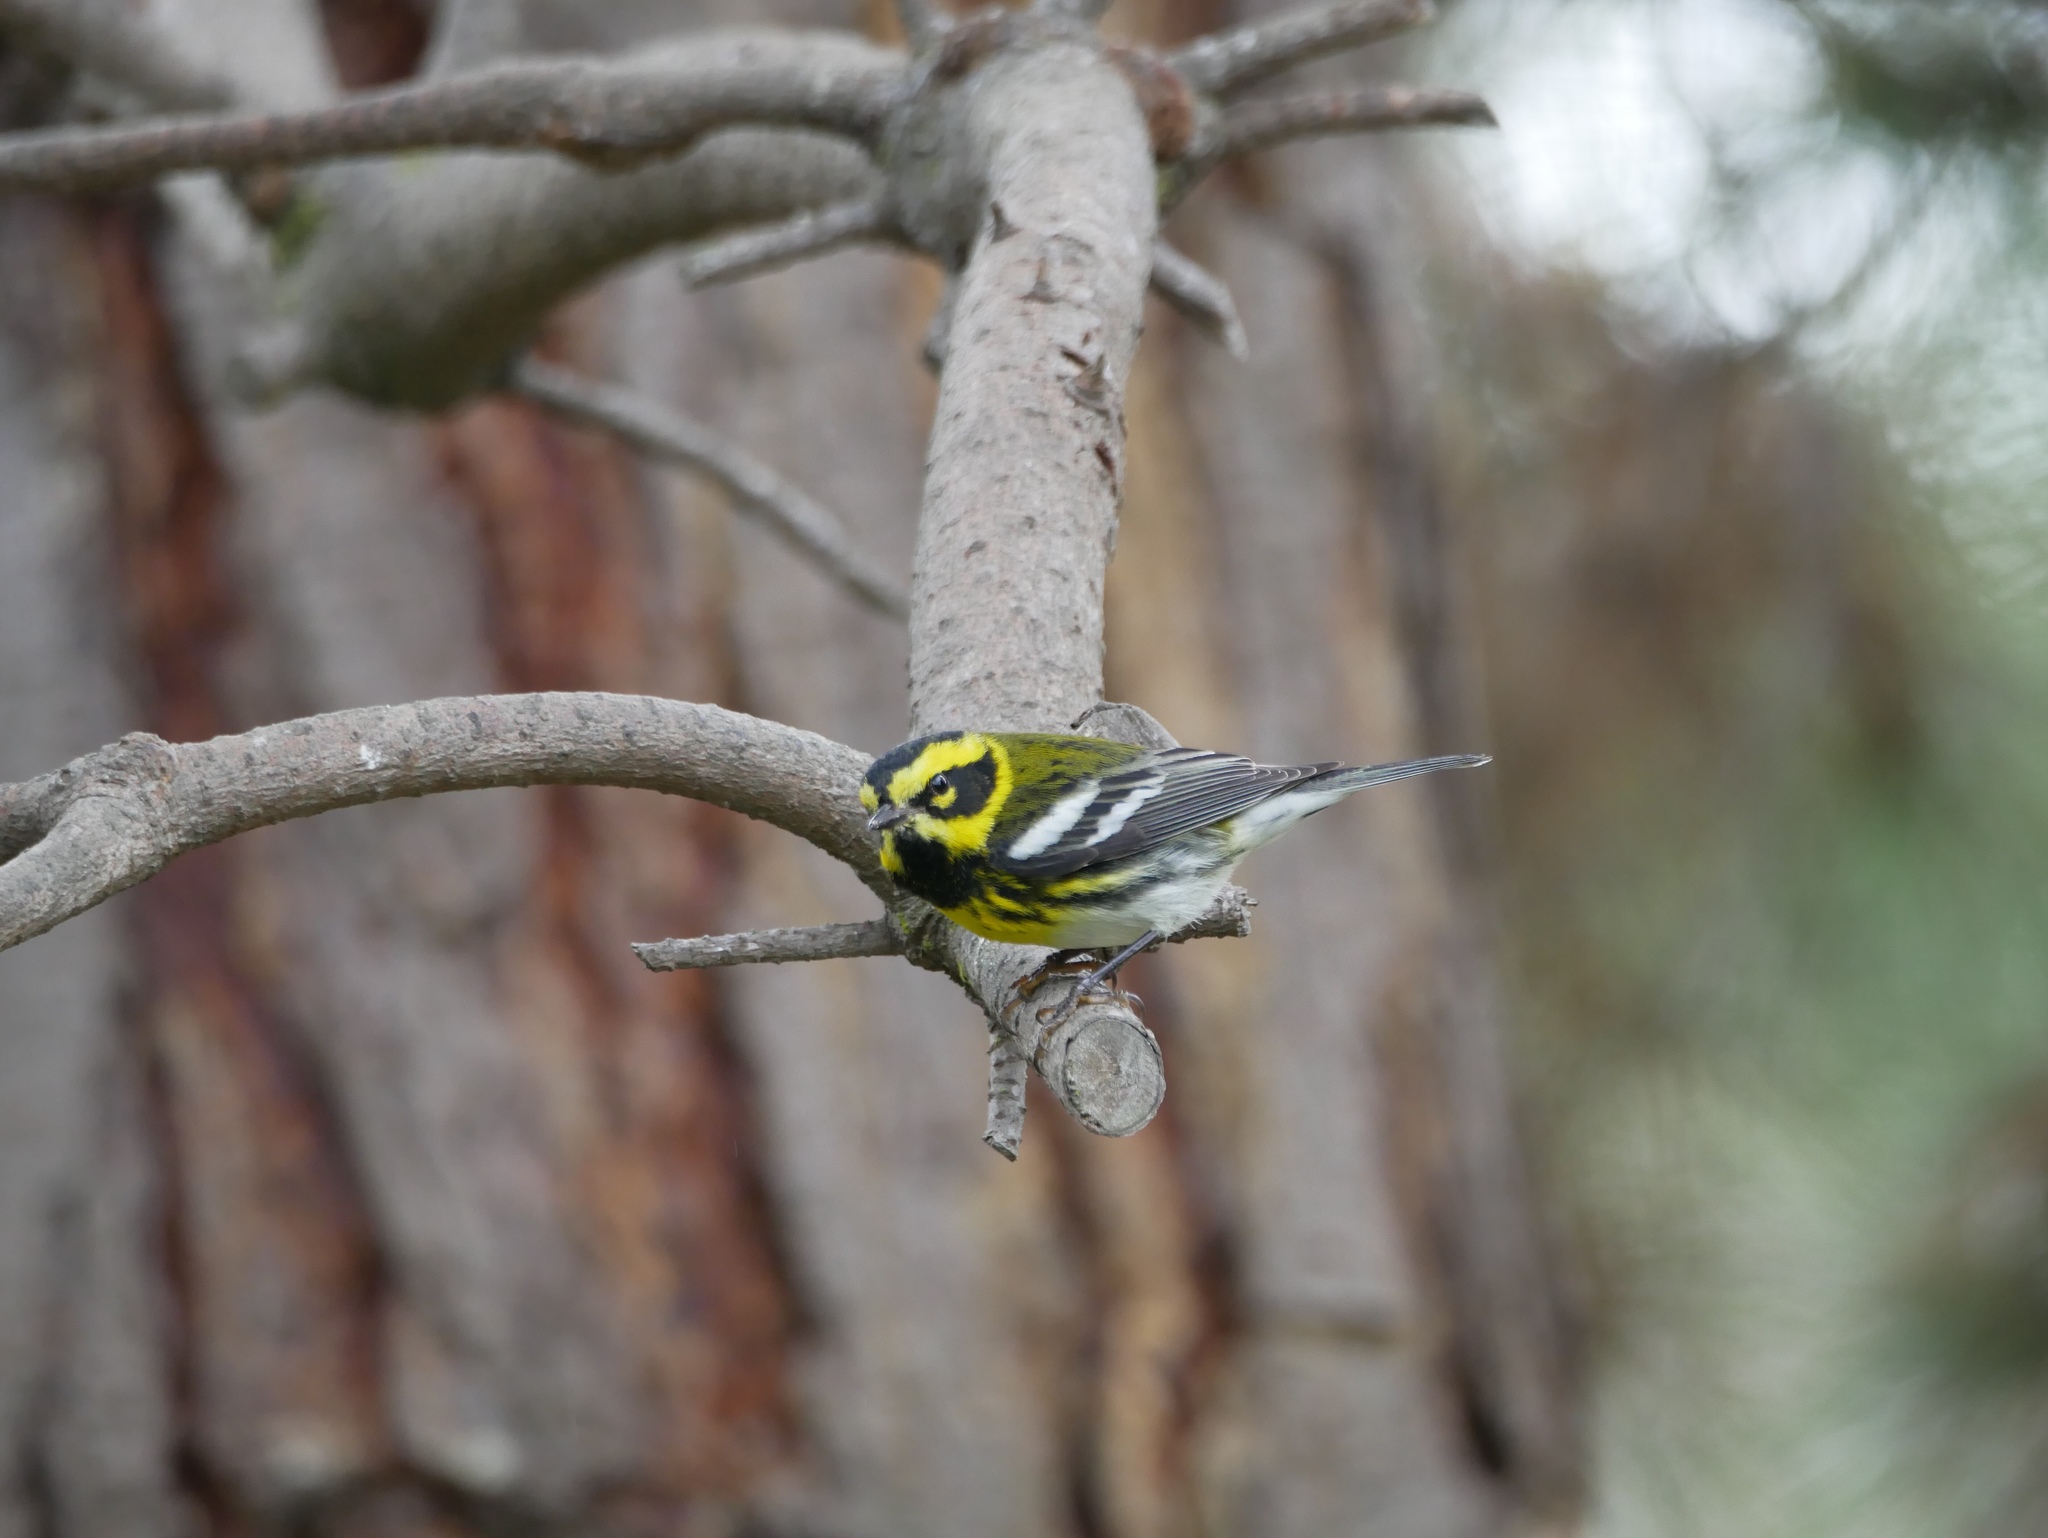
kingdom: Animalia
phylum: Chordata
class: Aves
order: Passeriformes
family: Parulidae
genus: Setophaga
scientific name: Setophaga townsendi
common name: Townsend's warbler
